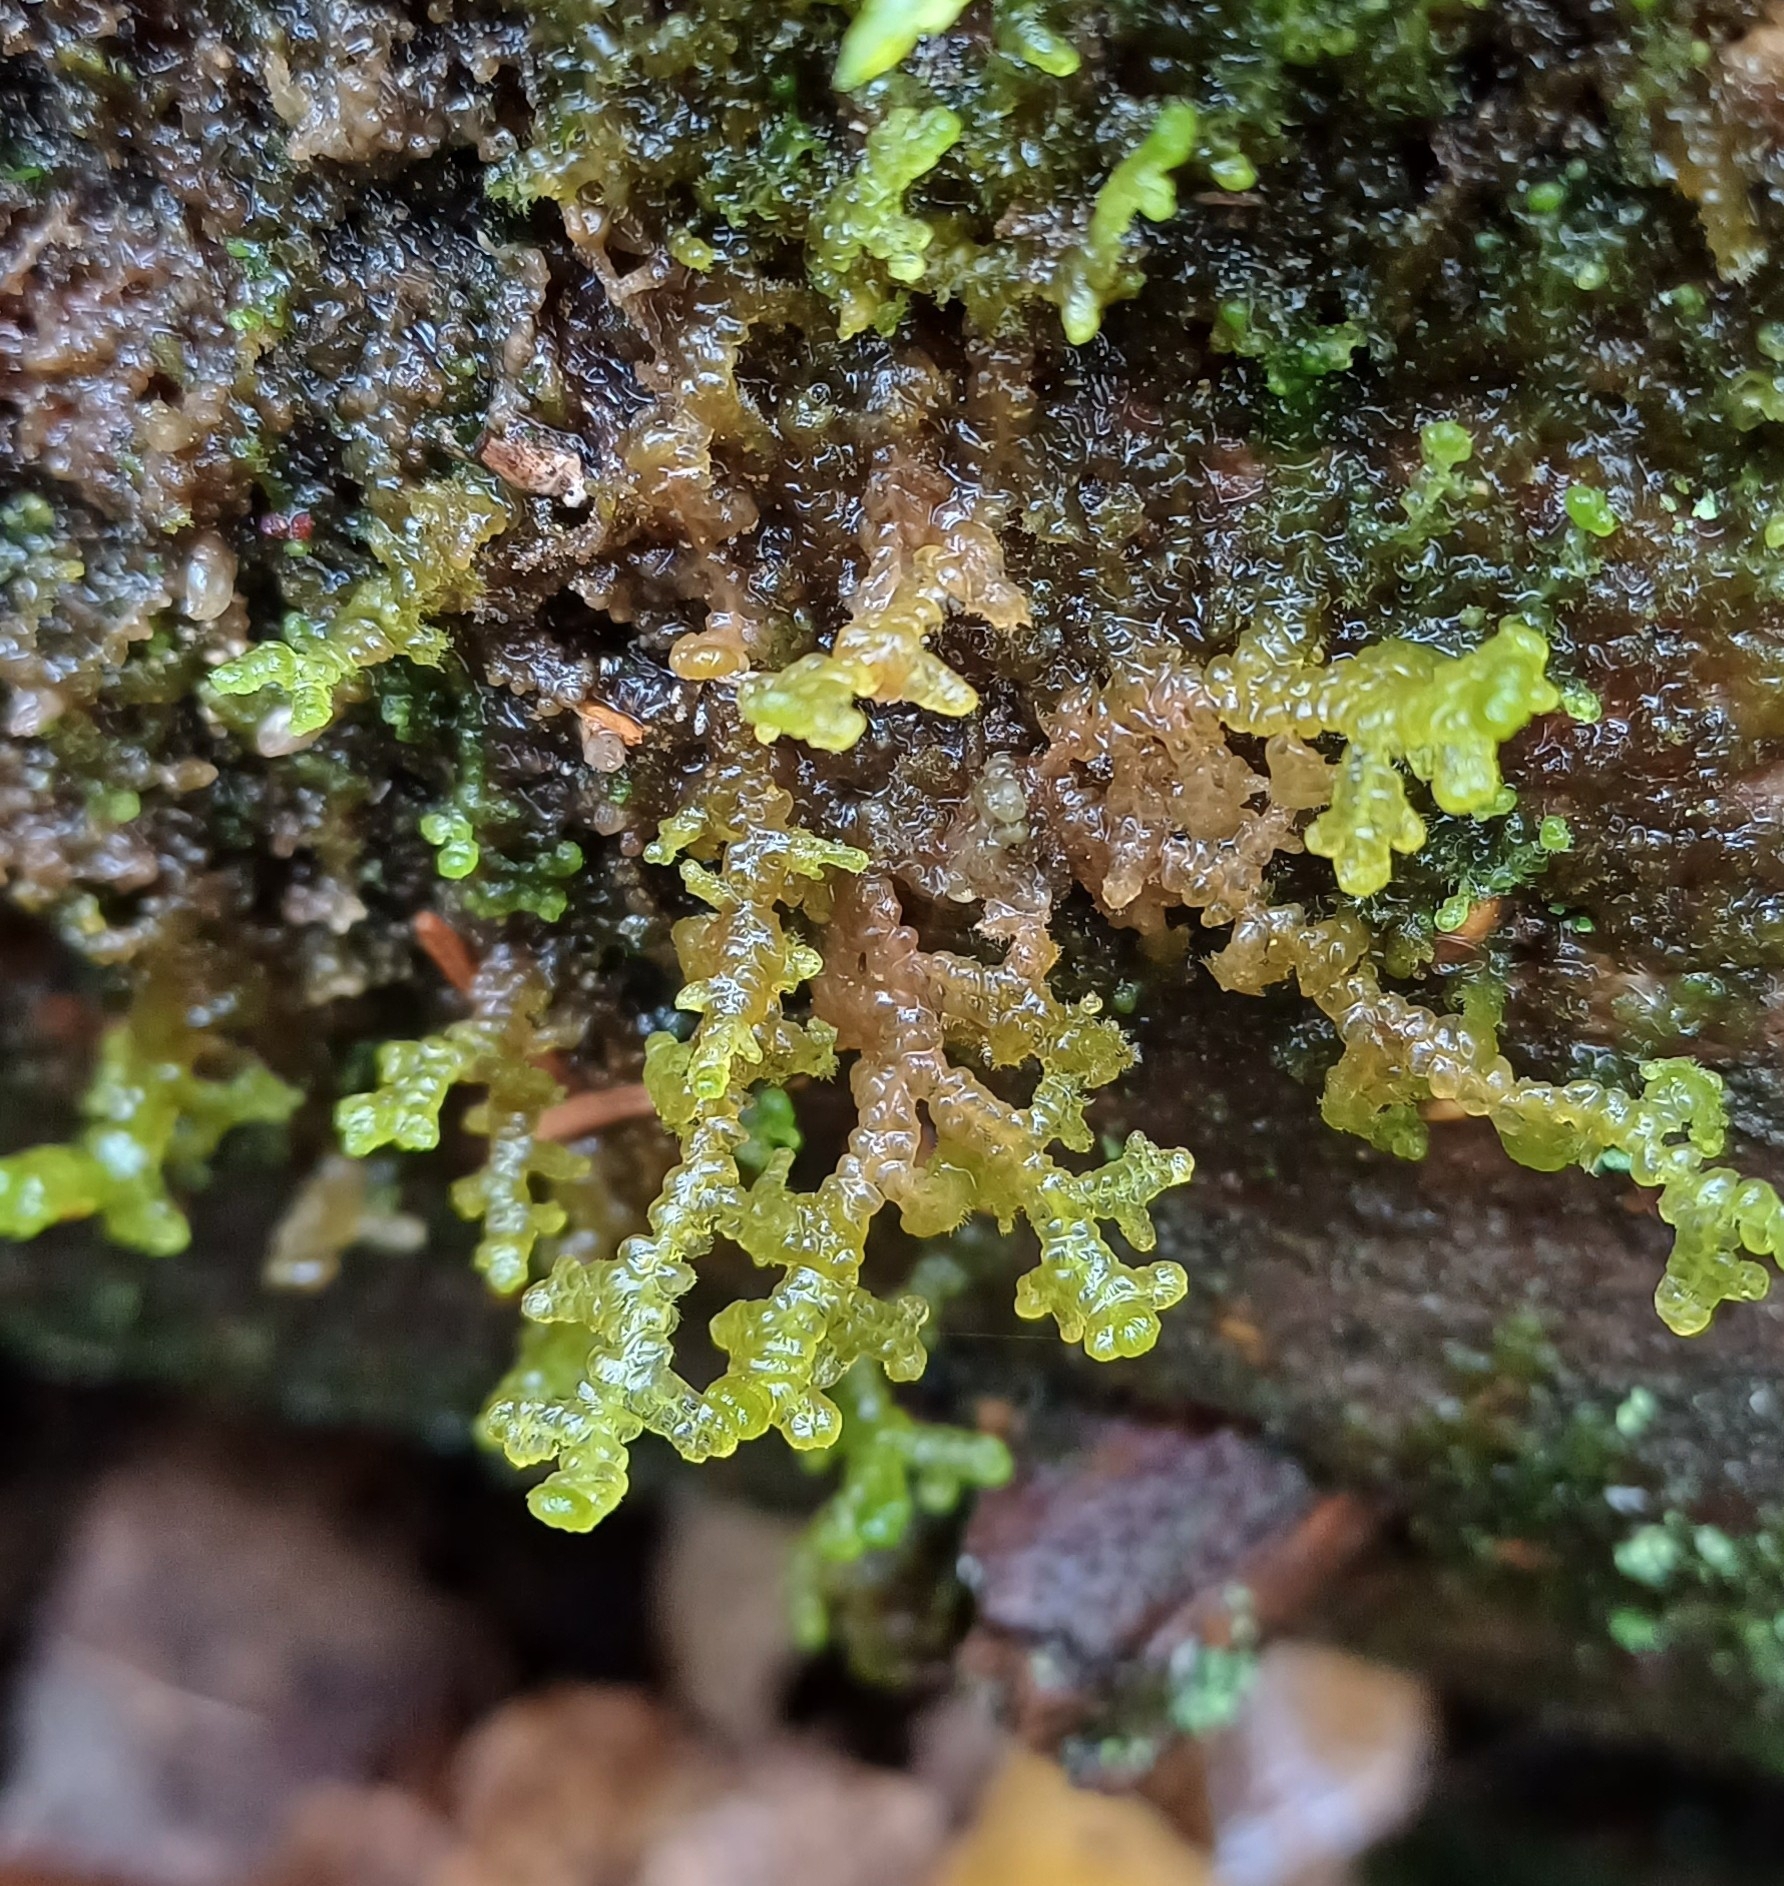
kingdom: Plantae
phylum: Marchantiophyta
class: Jungermanniopsida
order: Ptilidiales
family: Ptilidiaceae
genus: Ptilidium
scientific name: Ptilidium ciliare
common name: Ciliate fringewort
